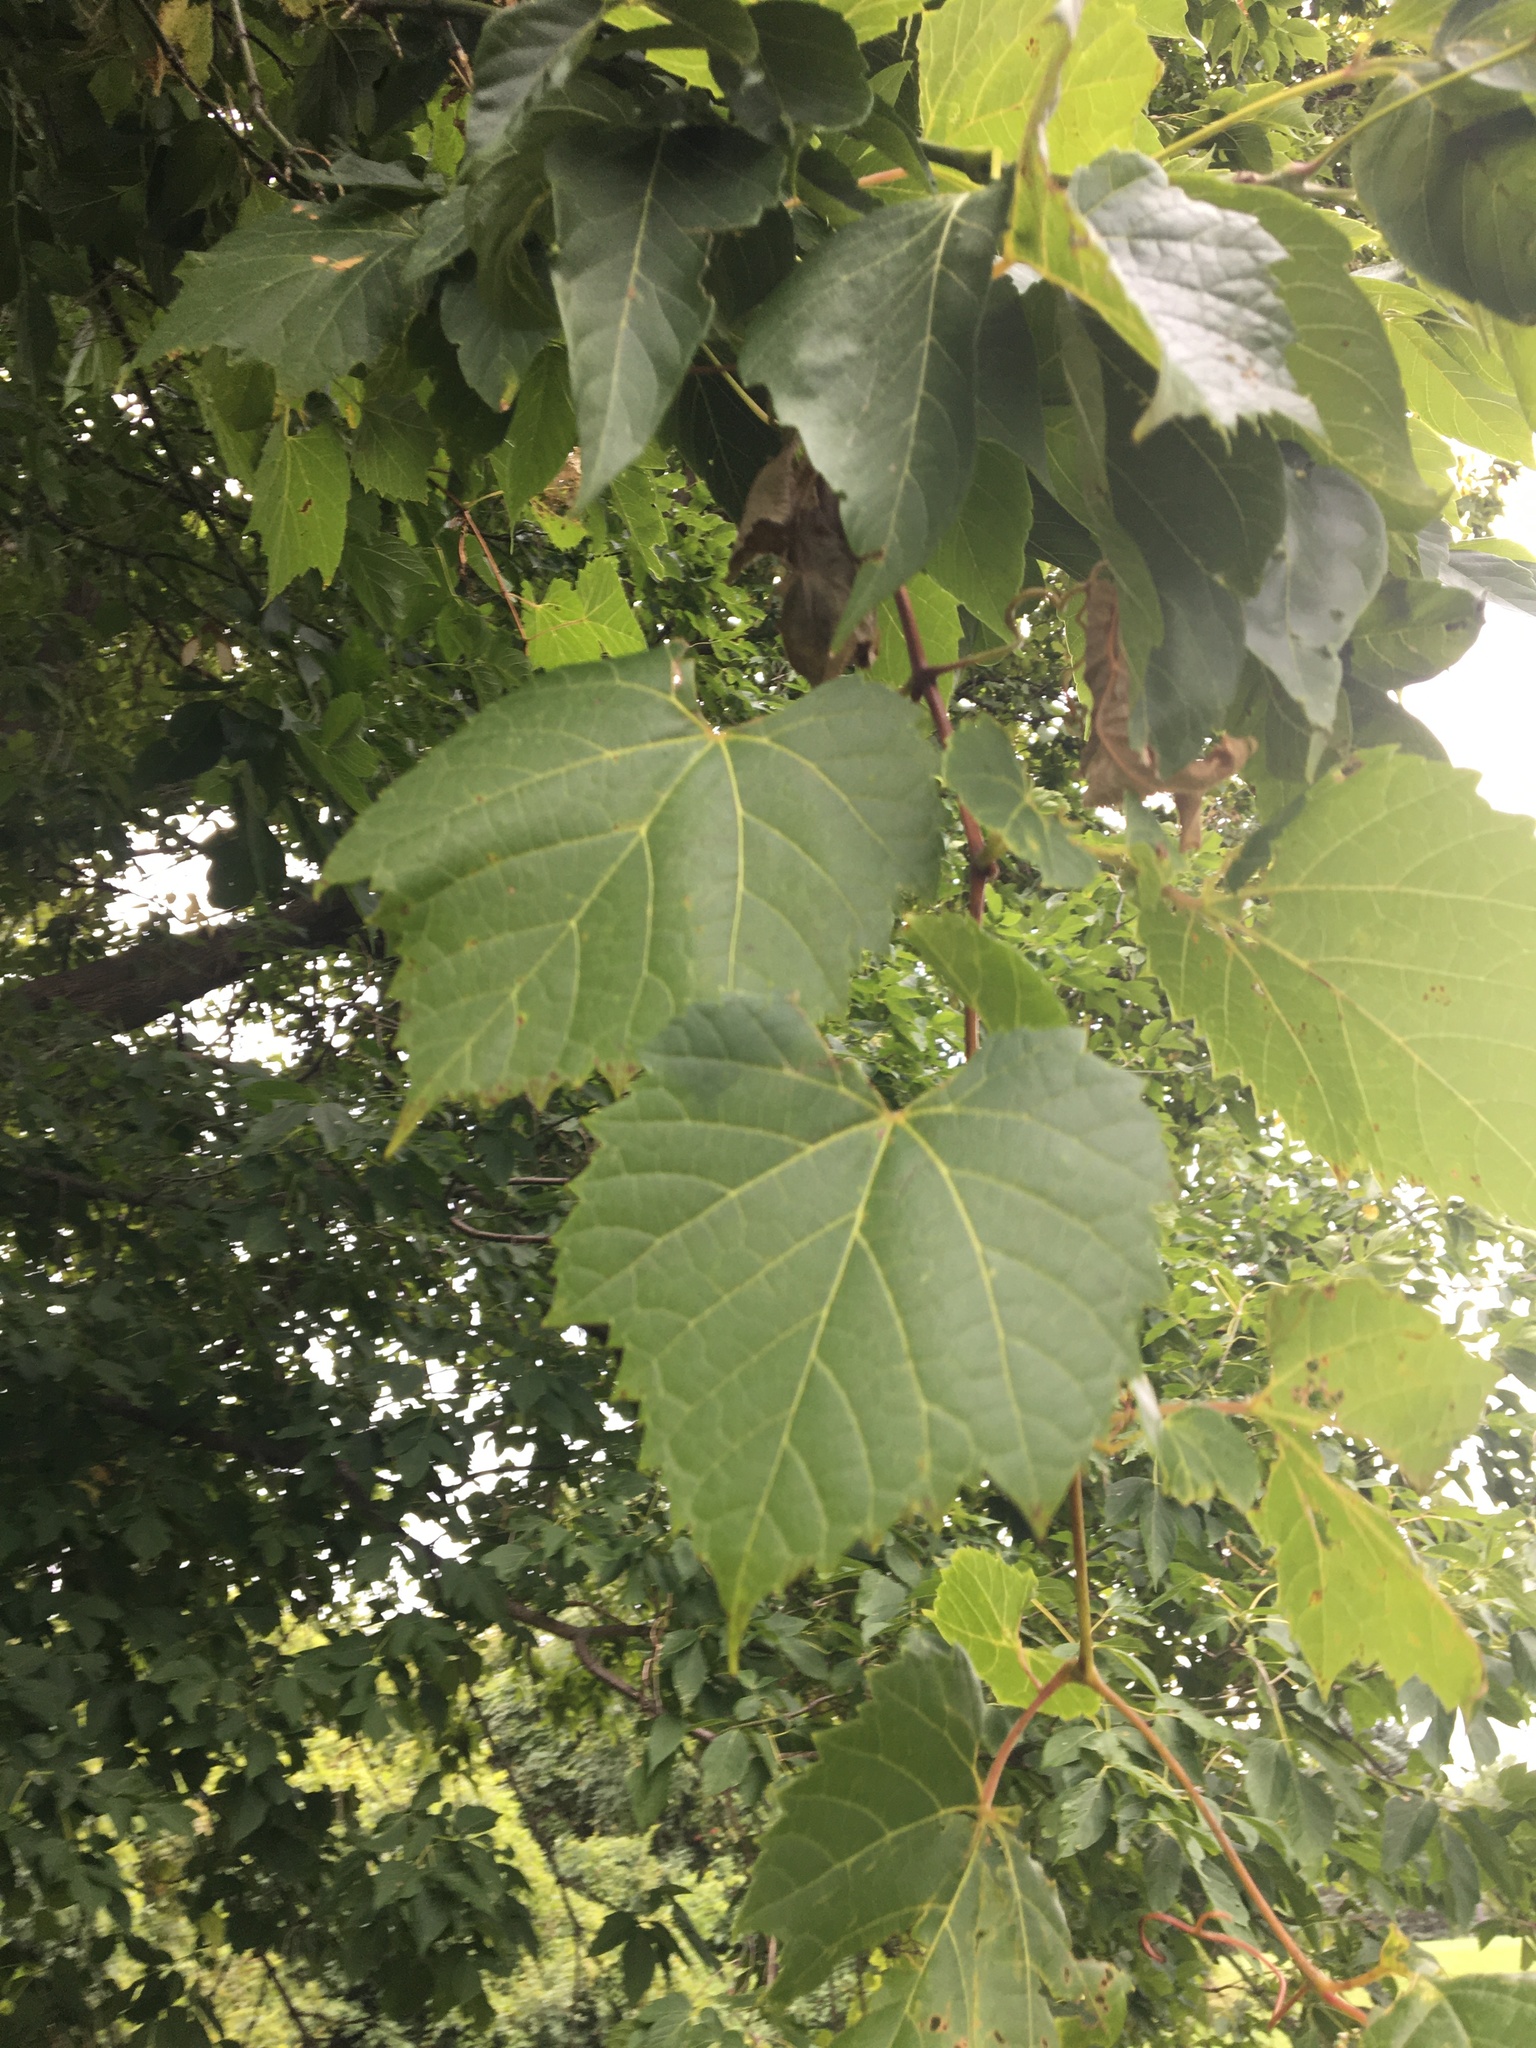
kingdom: Plantae
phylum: Tracheophyta
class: Magnoliopsida
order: Vitales
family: Vitaceae
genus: Vitis
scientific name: Vitis riparia
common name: Frost grape
